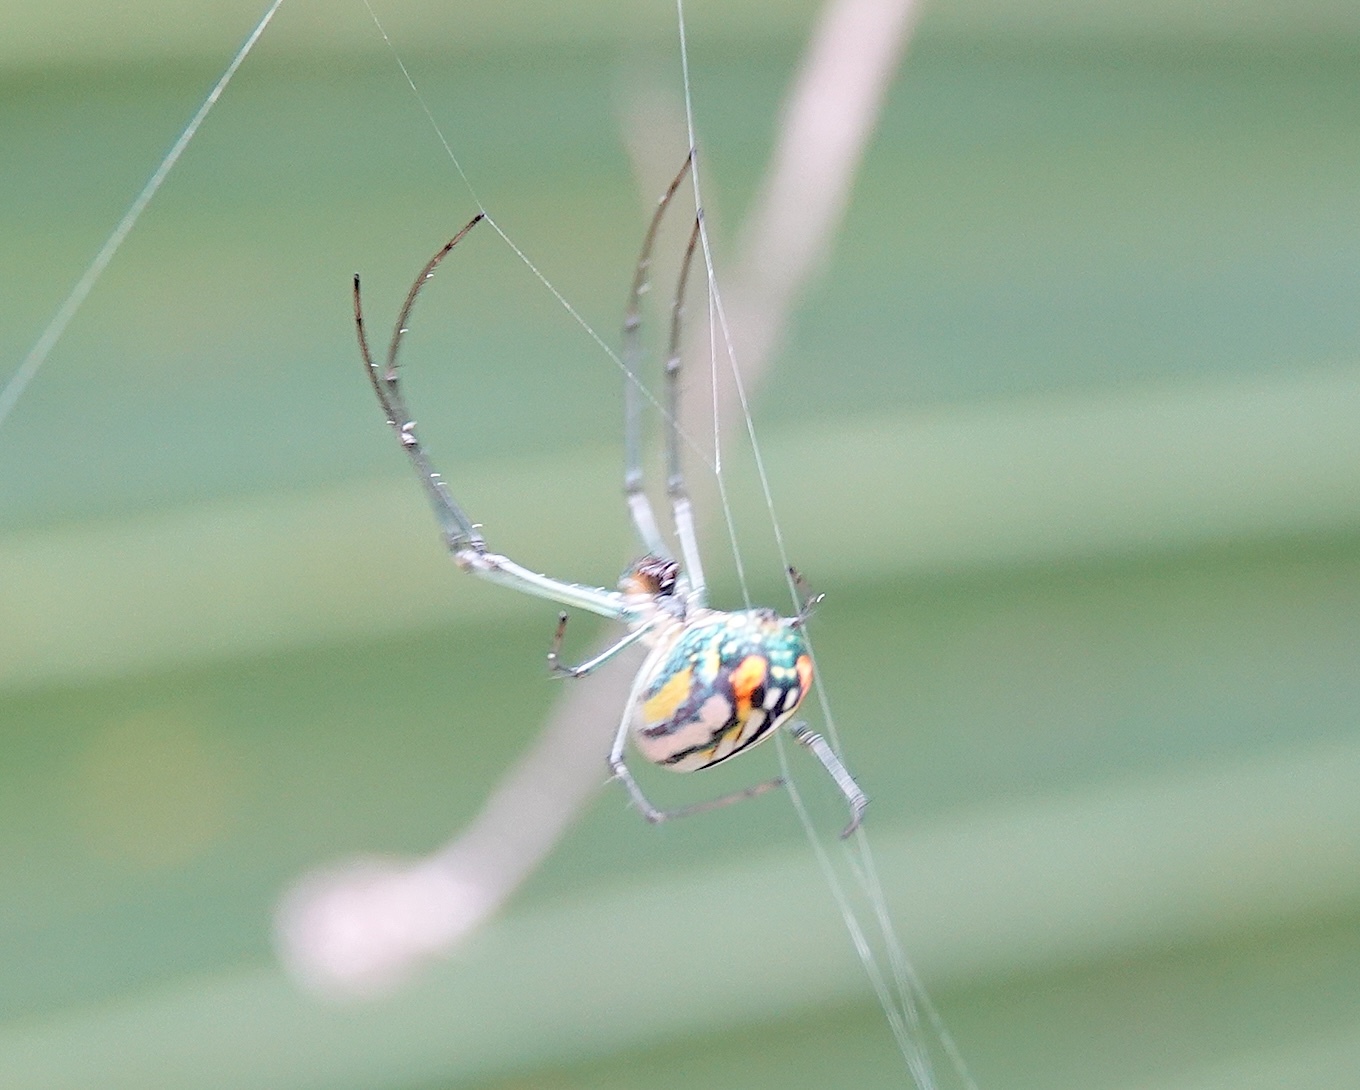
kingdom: Animalia
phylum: Arthropoda
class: Arachnida
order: Araneae
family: Tetragnathidae
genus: Leucauge
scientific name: Leucauge argyrobapta
